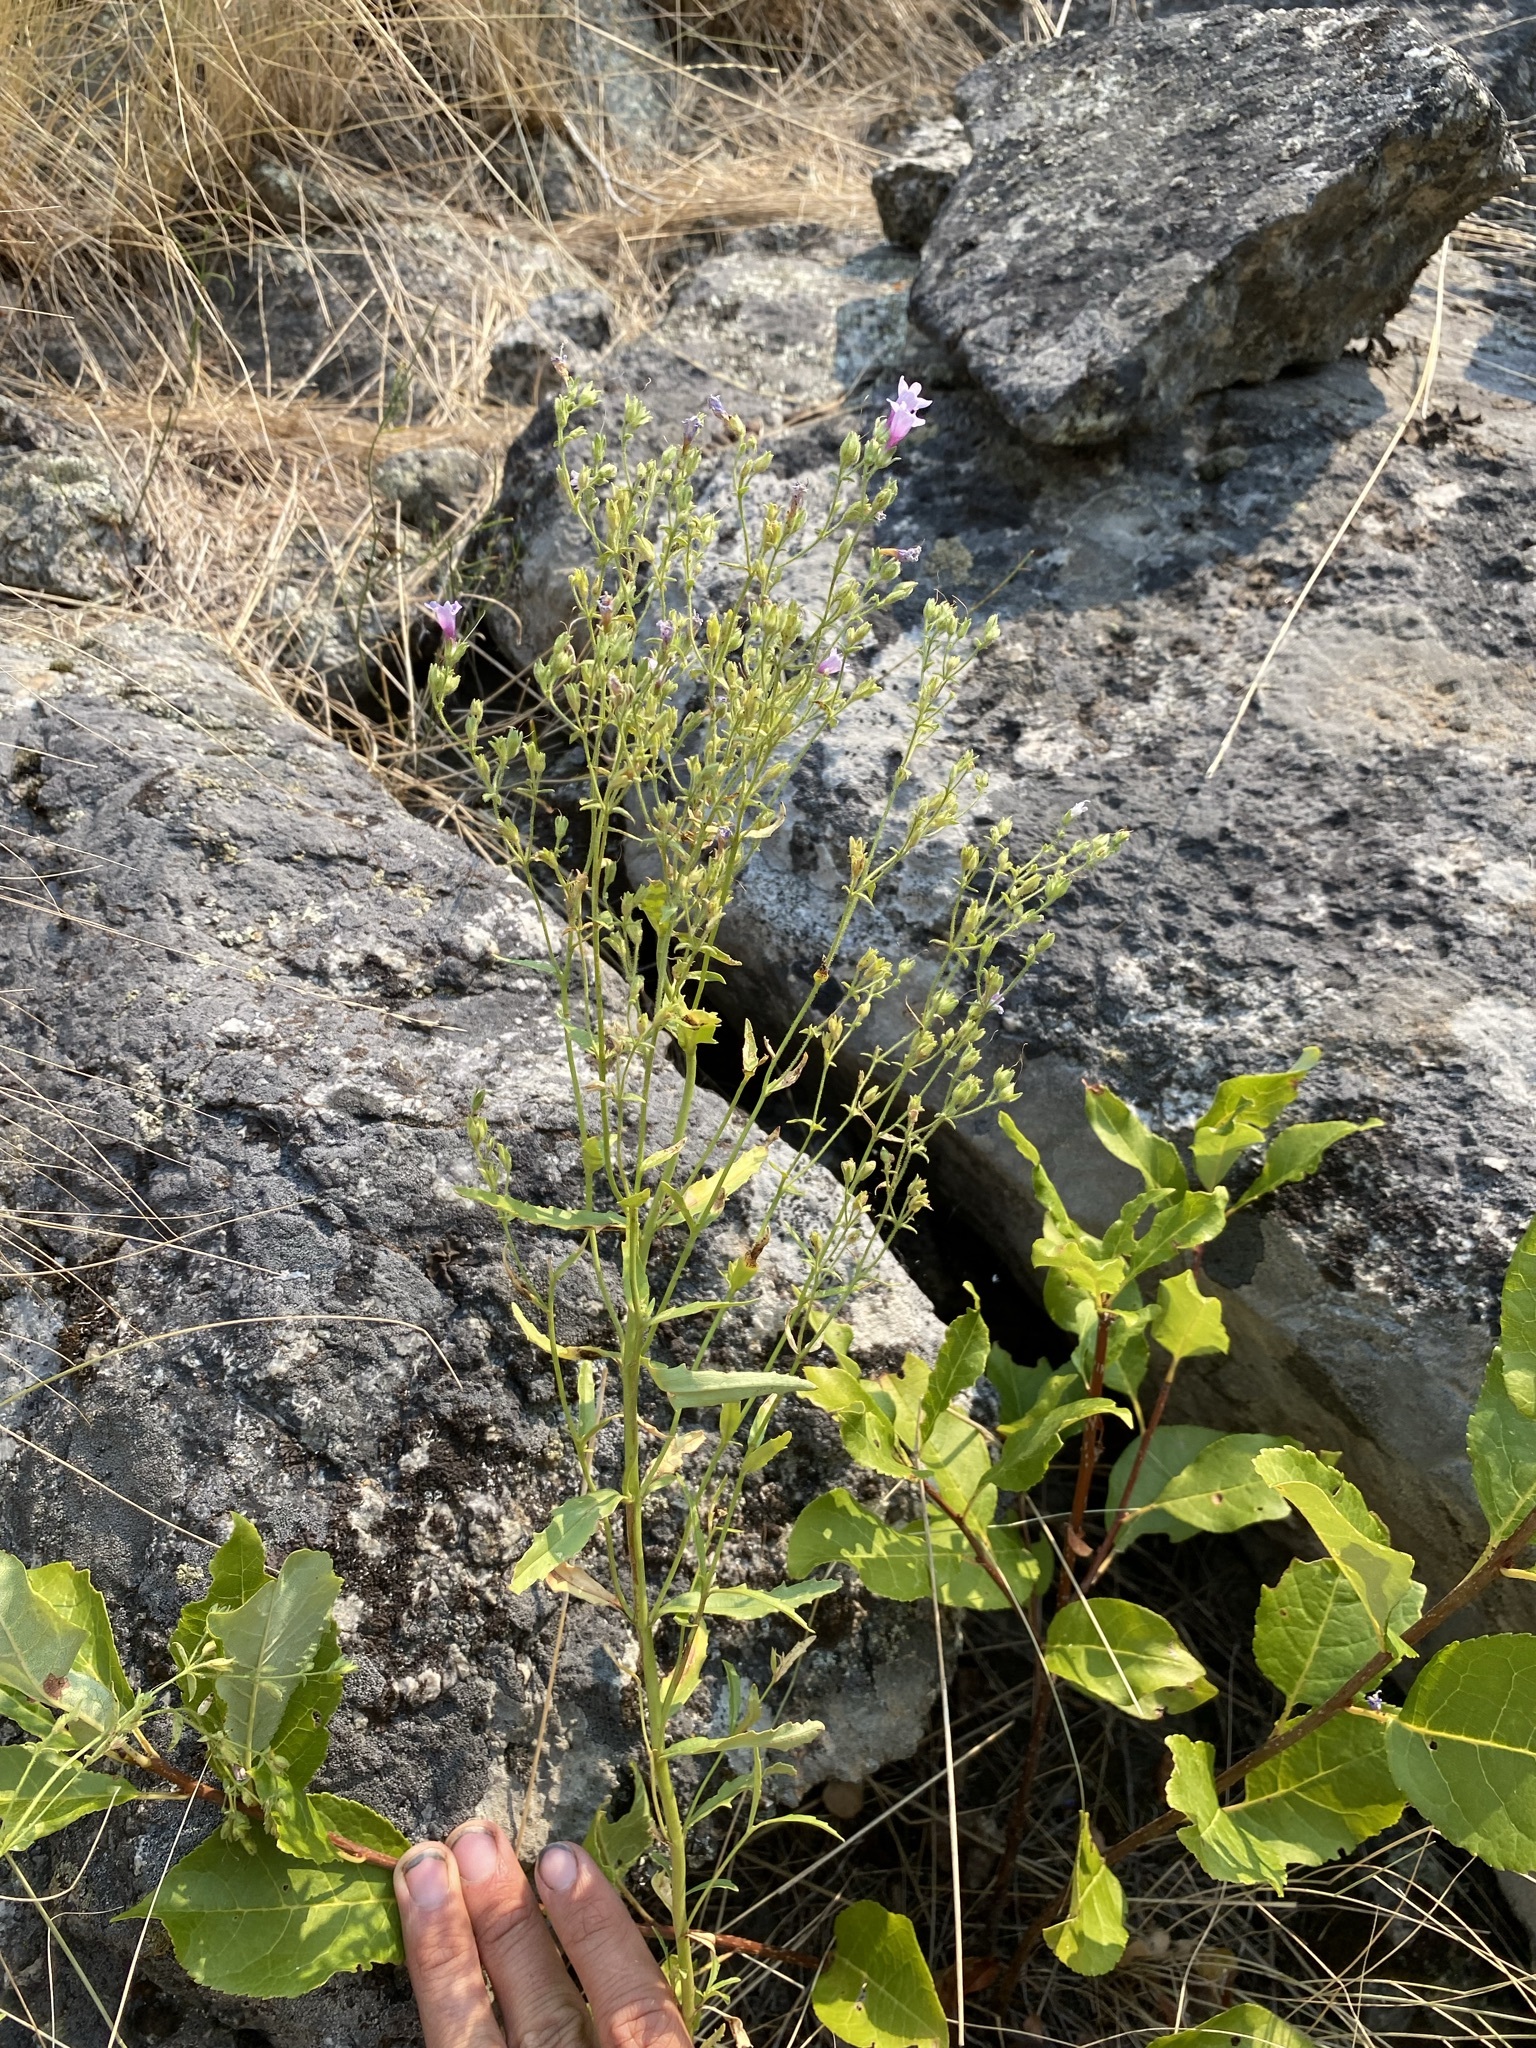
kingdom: Plantae
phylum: Tracheophyta
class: Magnoliopsida
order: Lamiales
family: Plantaginaceae
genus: Penstemon
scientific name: Penstemon diphyllus
